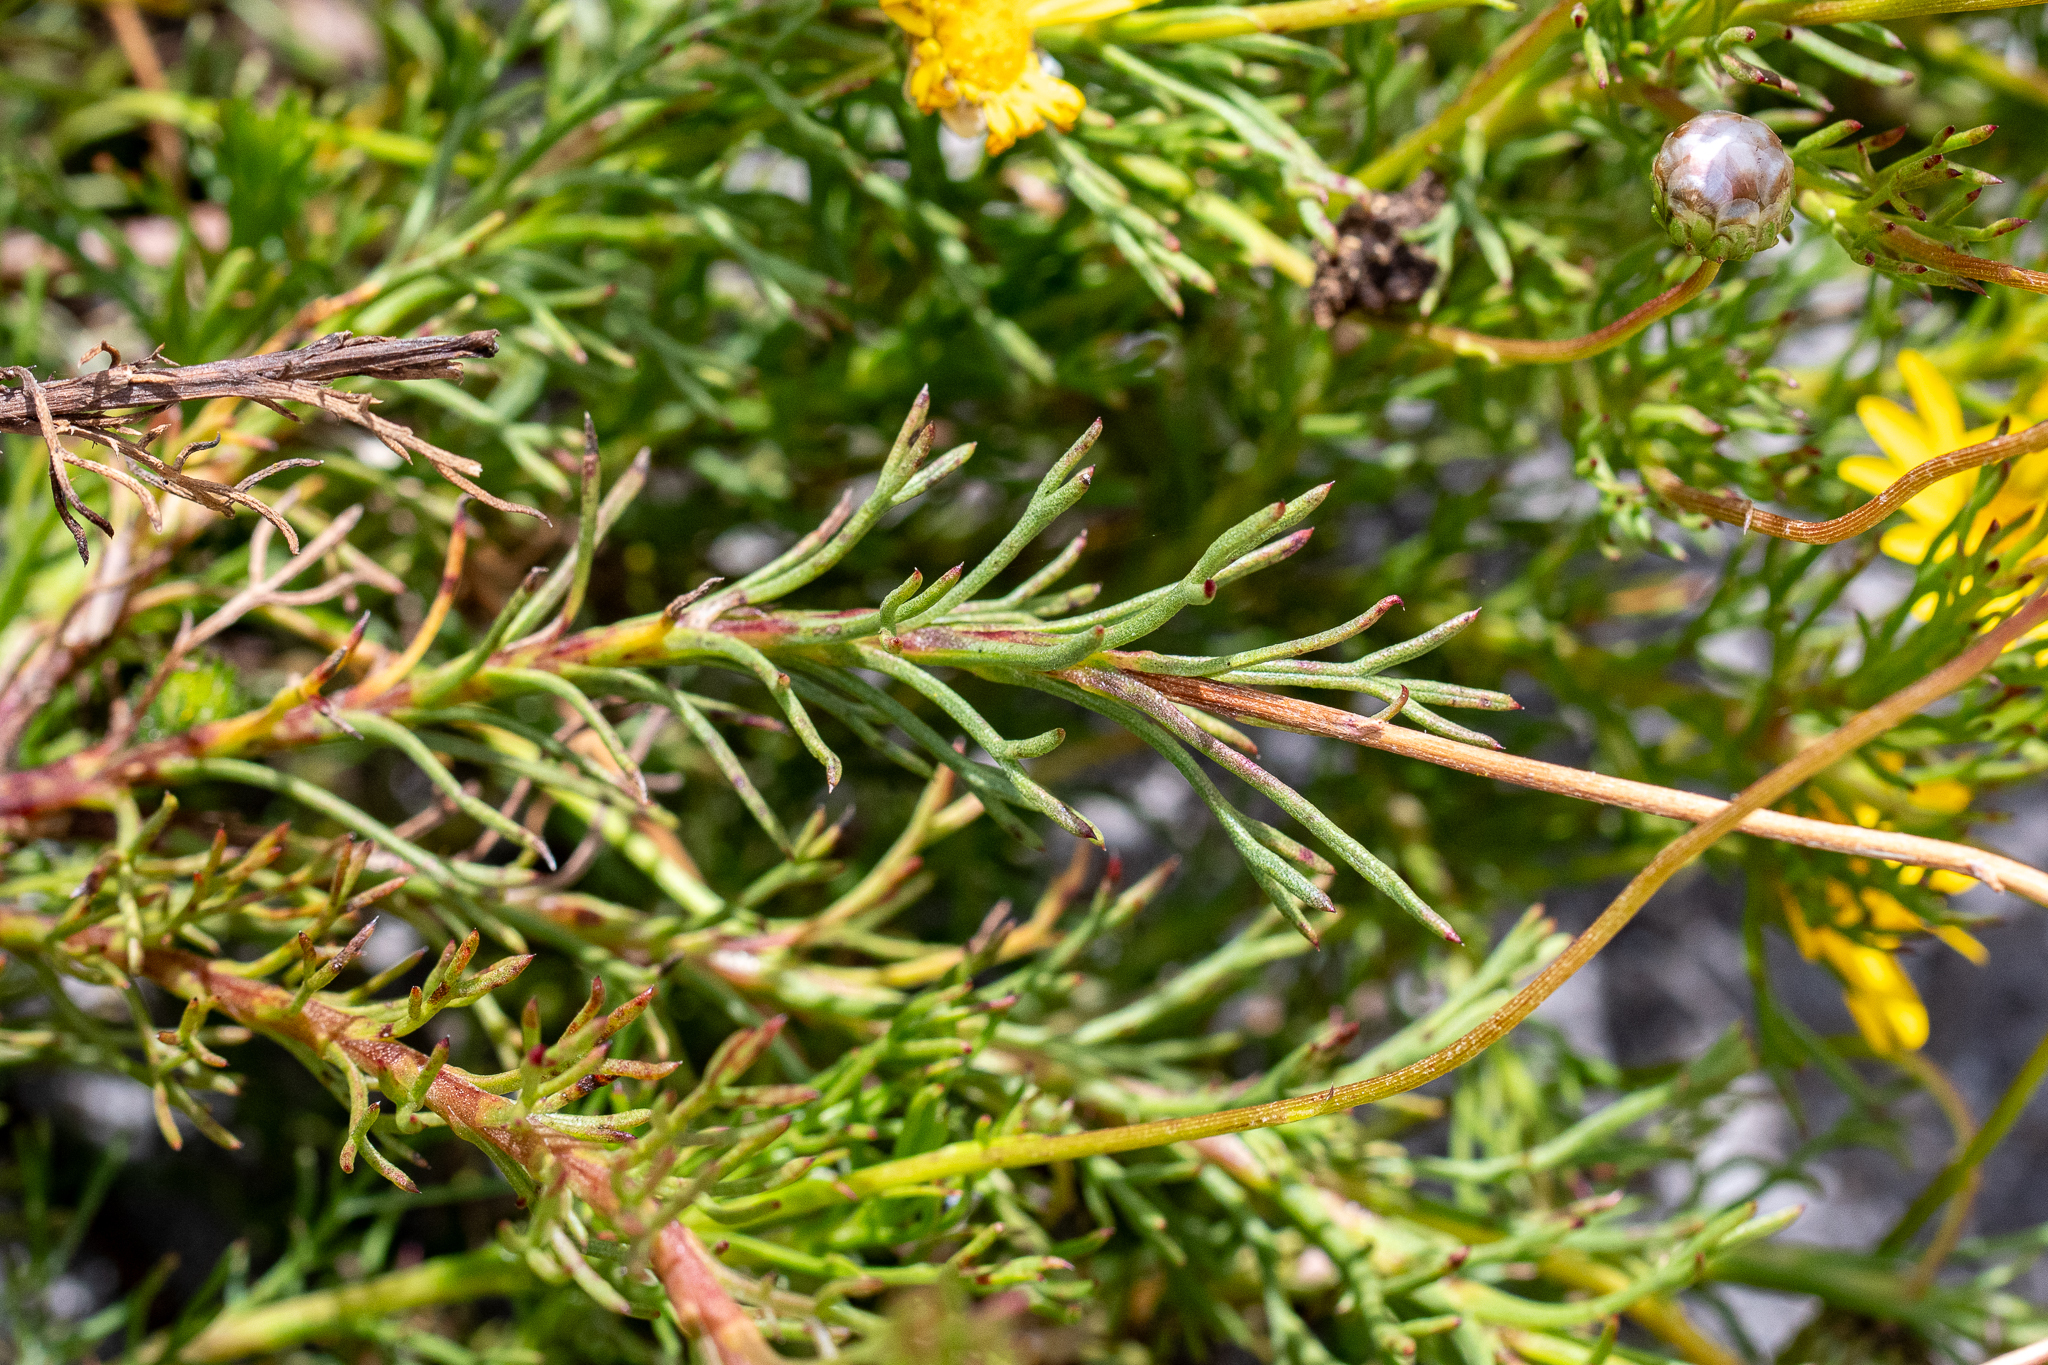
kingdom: Plantae
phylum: Tracheophyta
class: Magnoliopsida
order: Asterales
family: Asteraceae
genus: Ursinia
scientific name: Ursinia paleacea
